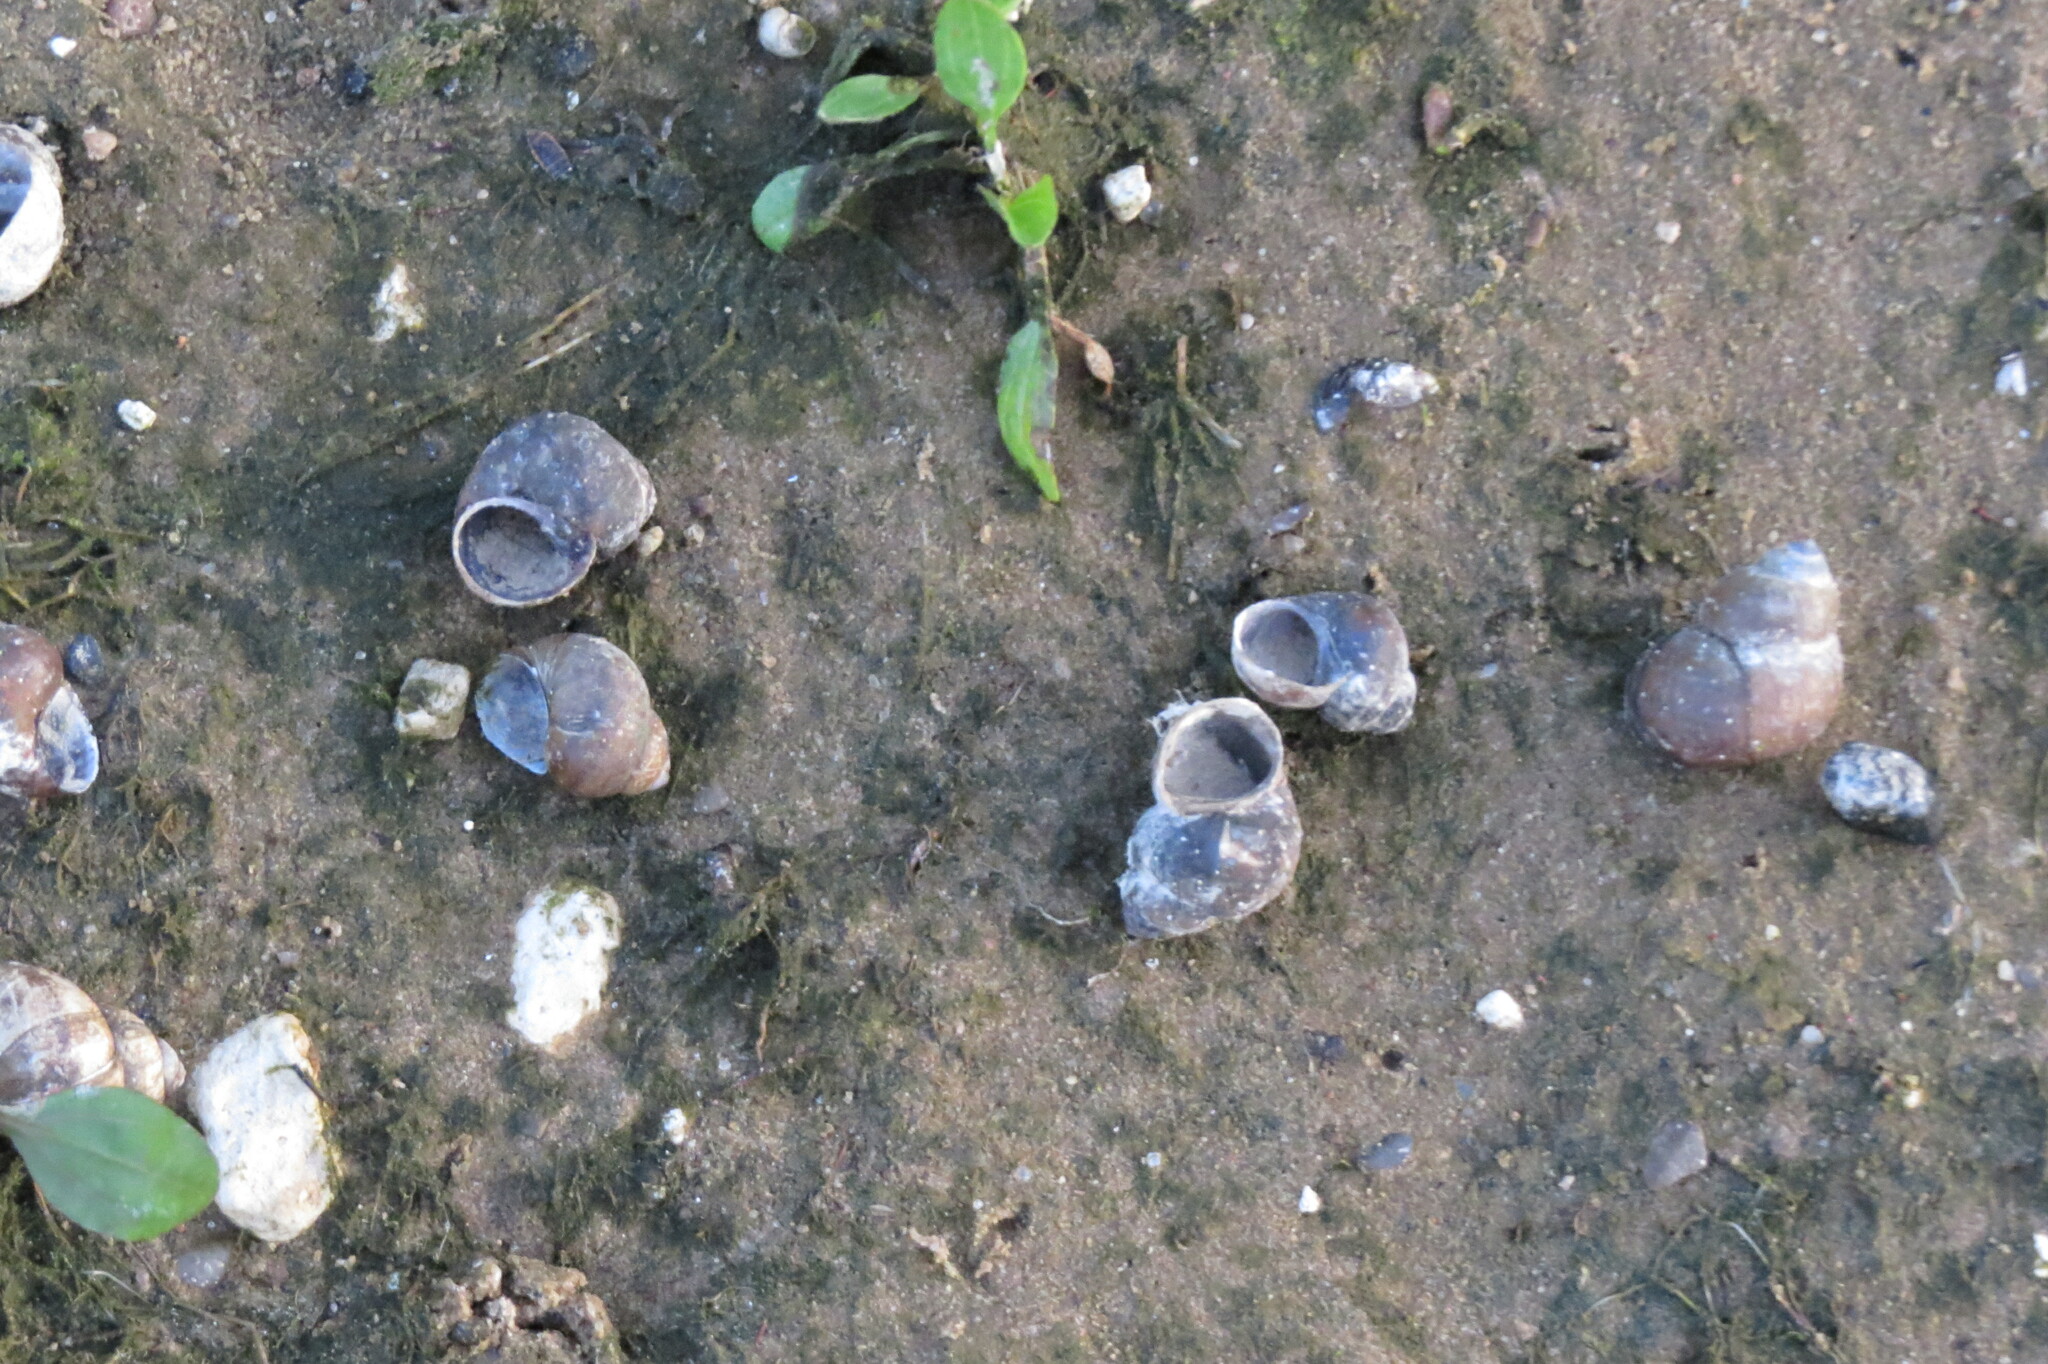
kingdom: Animalia
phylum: Mollusca
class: Gastropoda
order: Architaenioglossa
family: Viviparidae
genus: Viviparus
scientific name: Viviparus viviparus
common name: River snail
